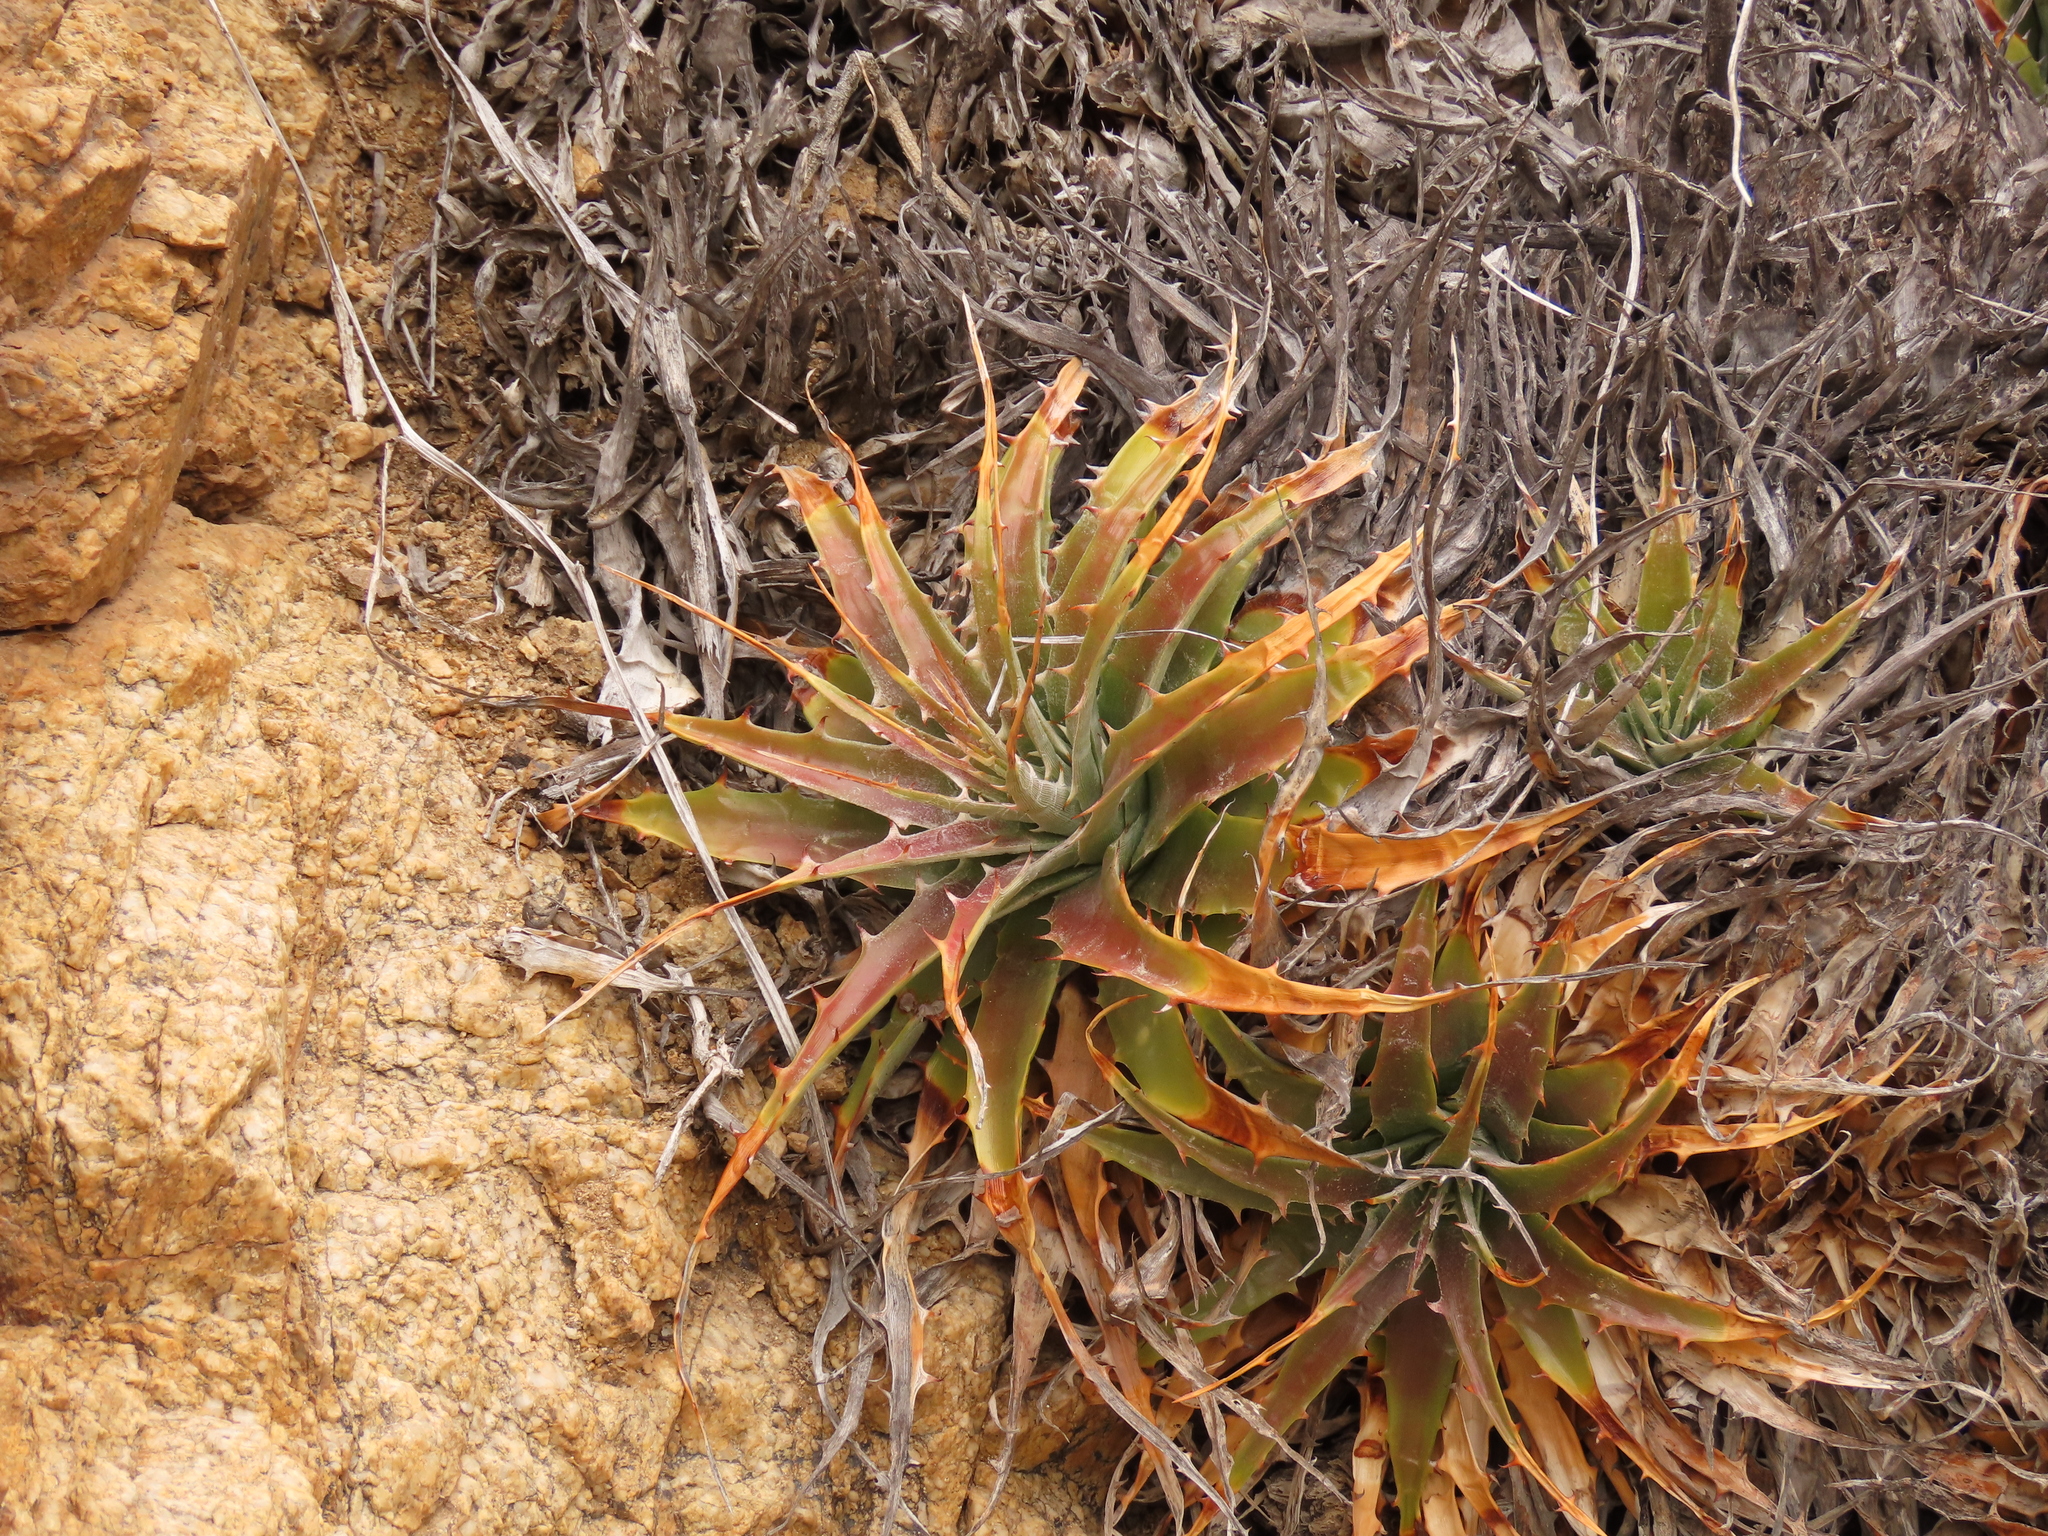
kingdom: Plantae
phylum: Tracheophyta
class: Liliopsida
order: Poales
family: Bromeliaceae
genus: Deuterocohnia
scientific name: Deuterocohnia chrysantha
